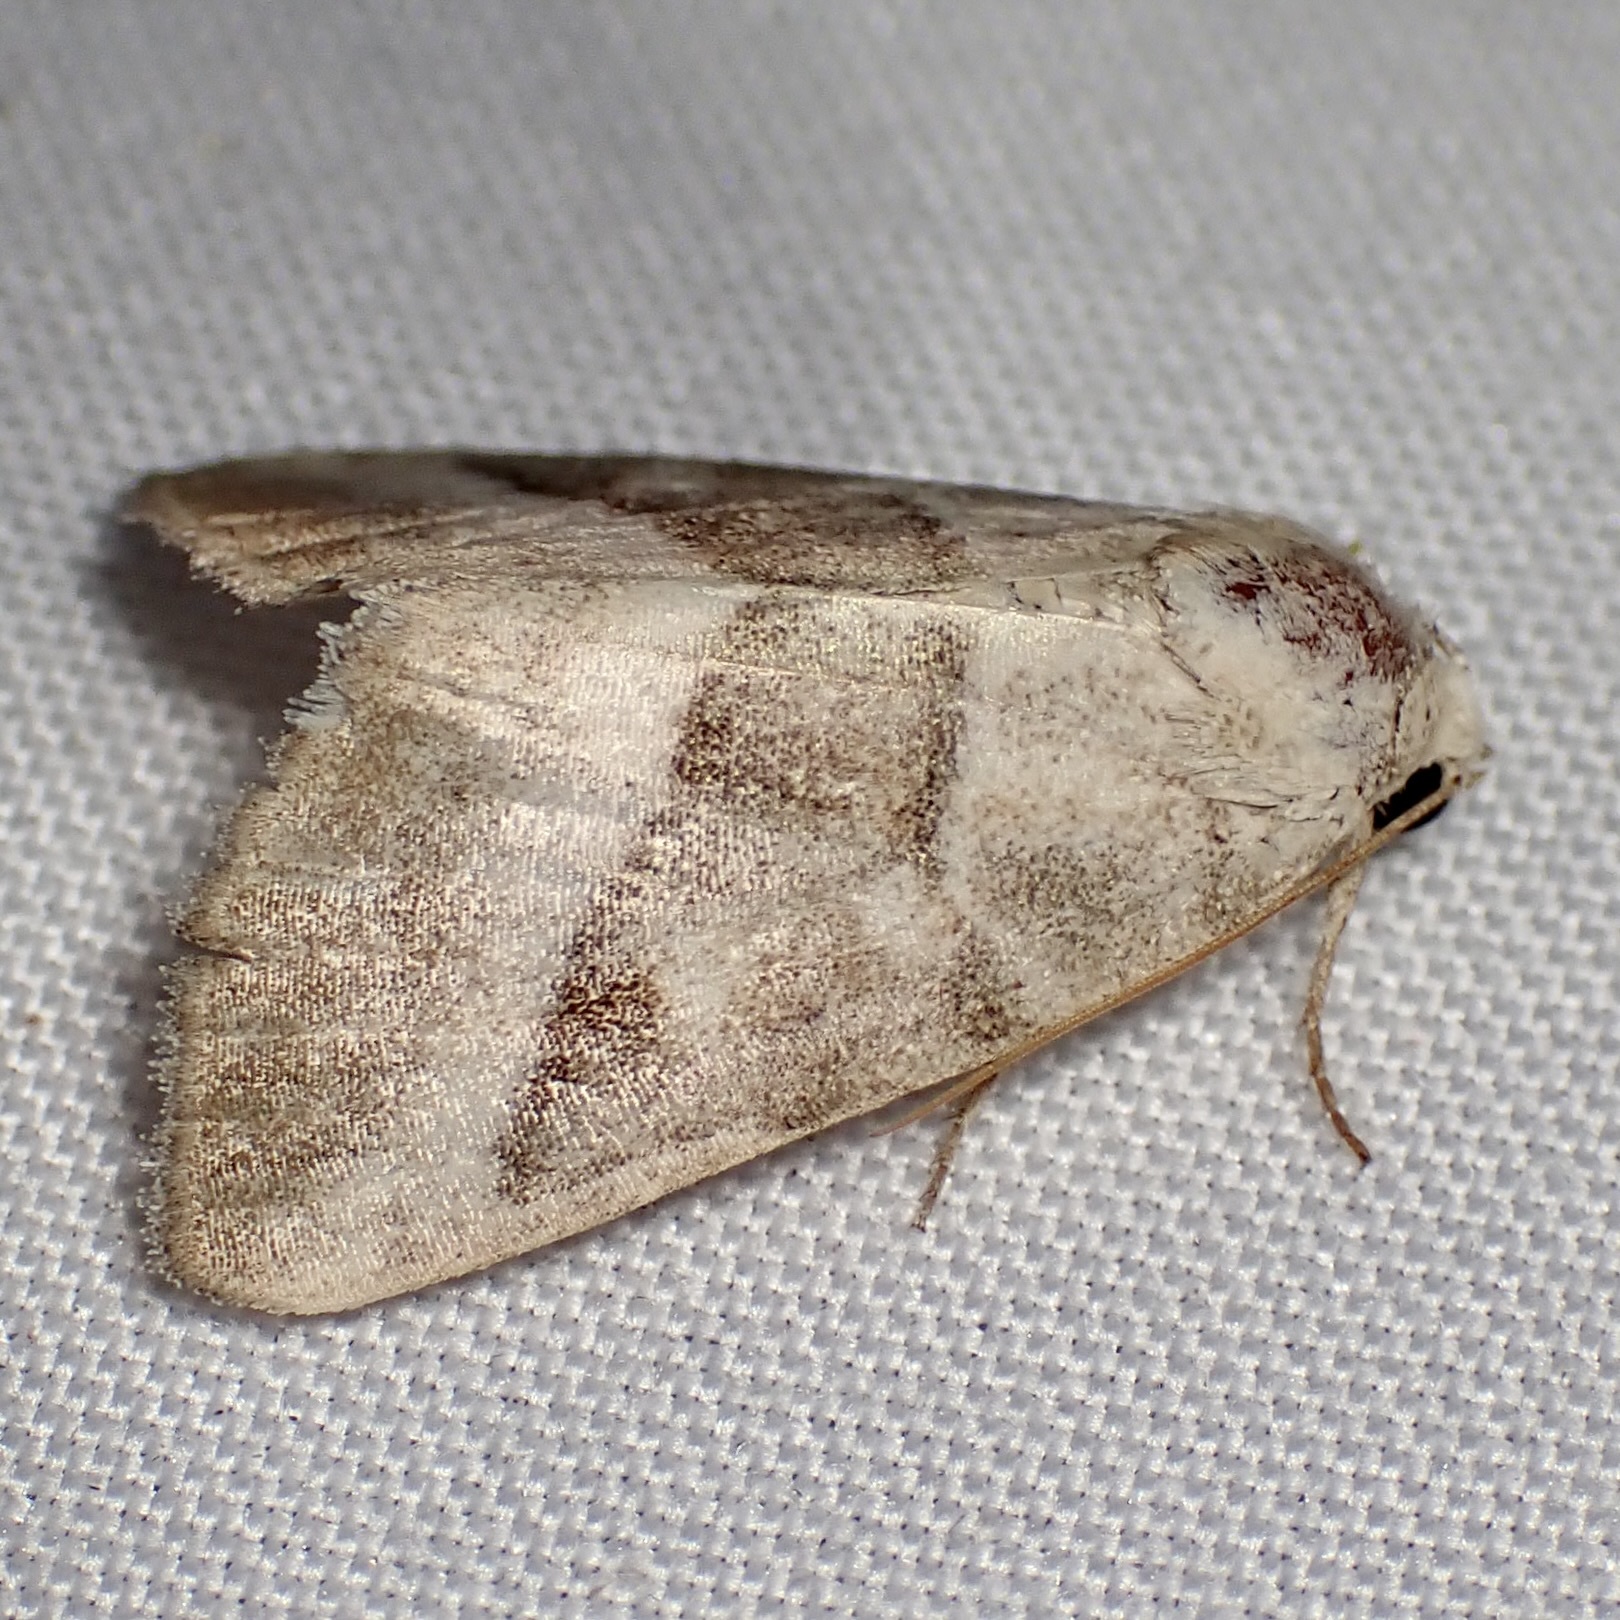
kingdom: Animalia
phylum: Arthropoda
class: Insecta
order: Lepidoptera
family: Noctuidae
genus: Ogdoconta
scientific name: Ogdoconta moreno
